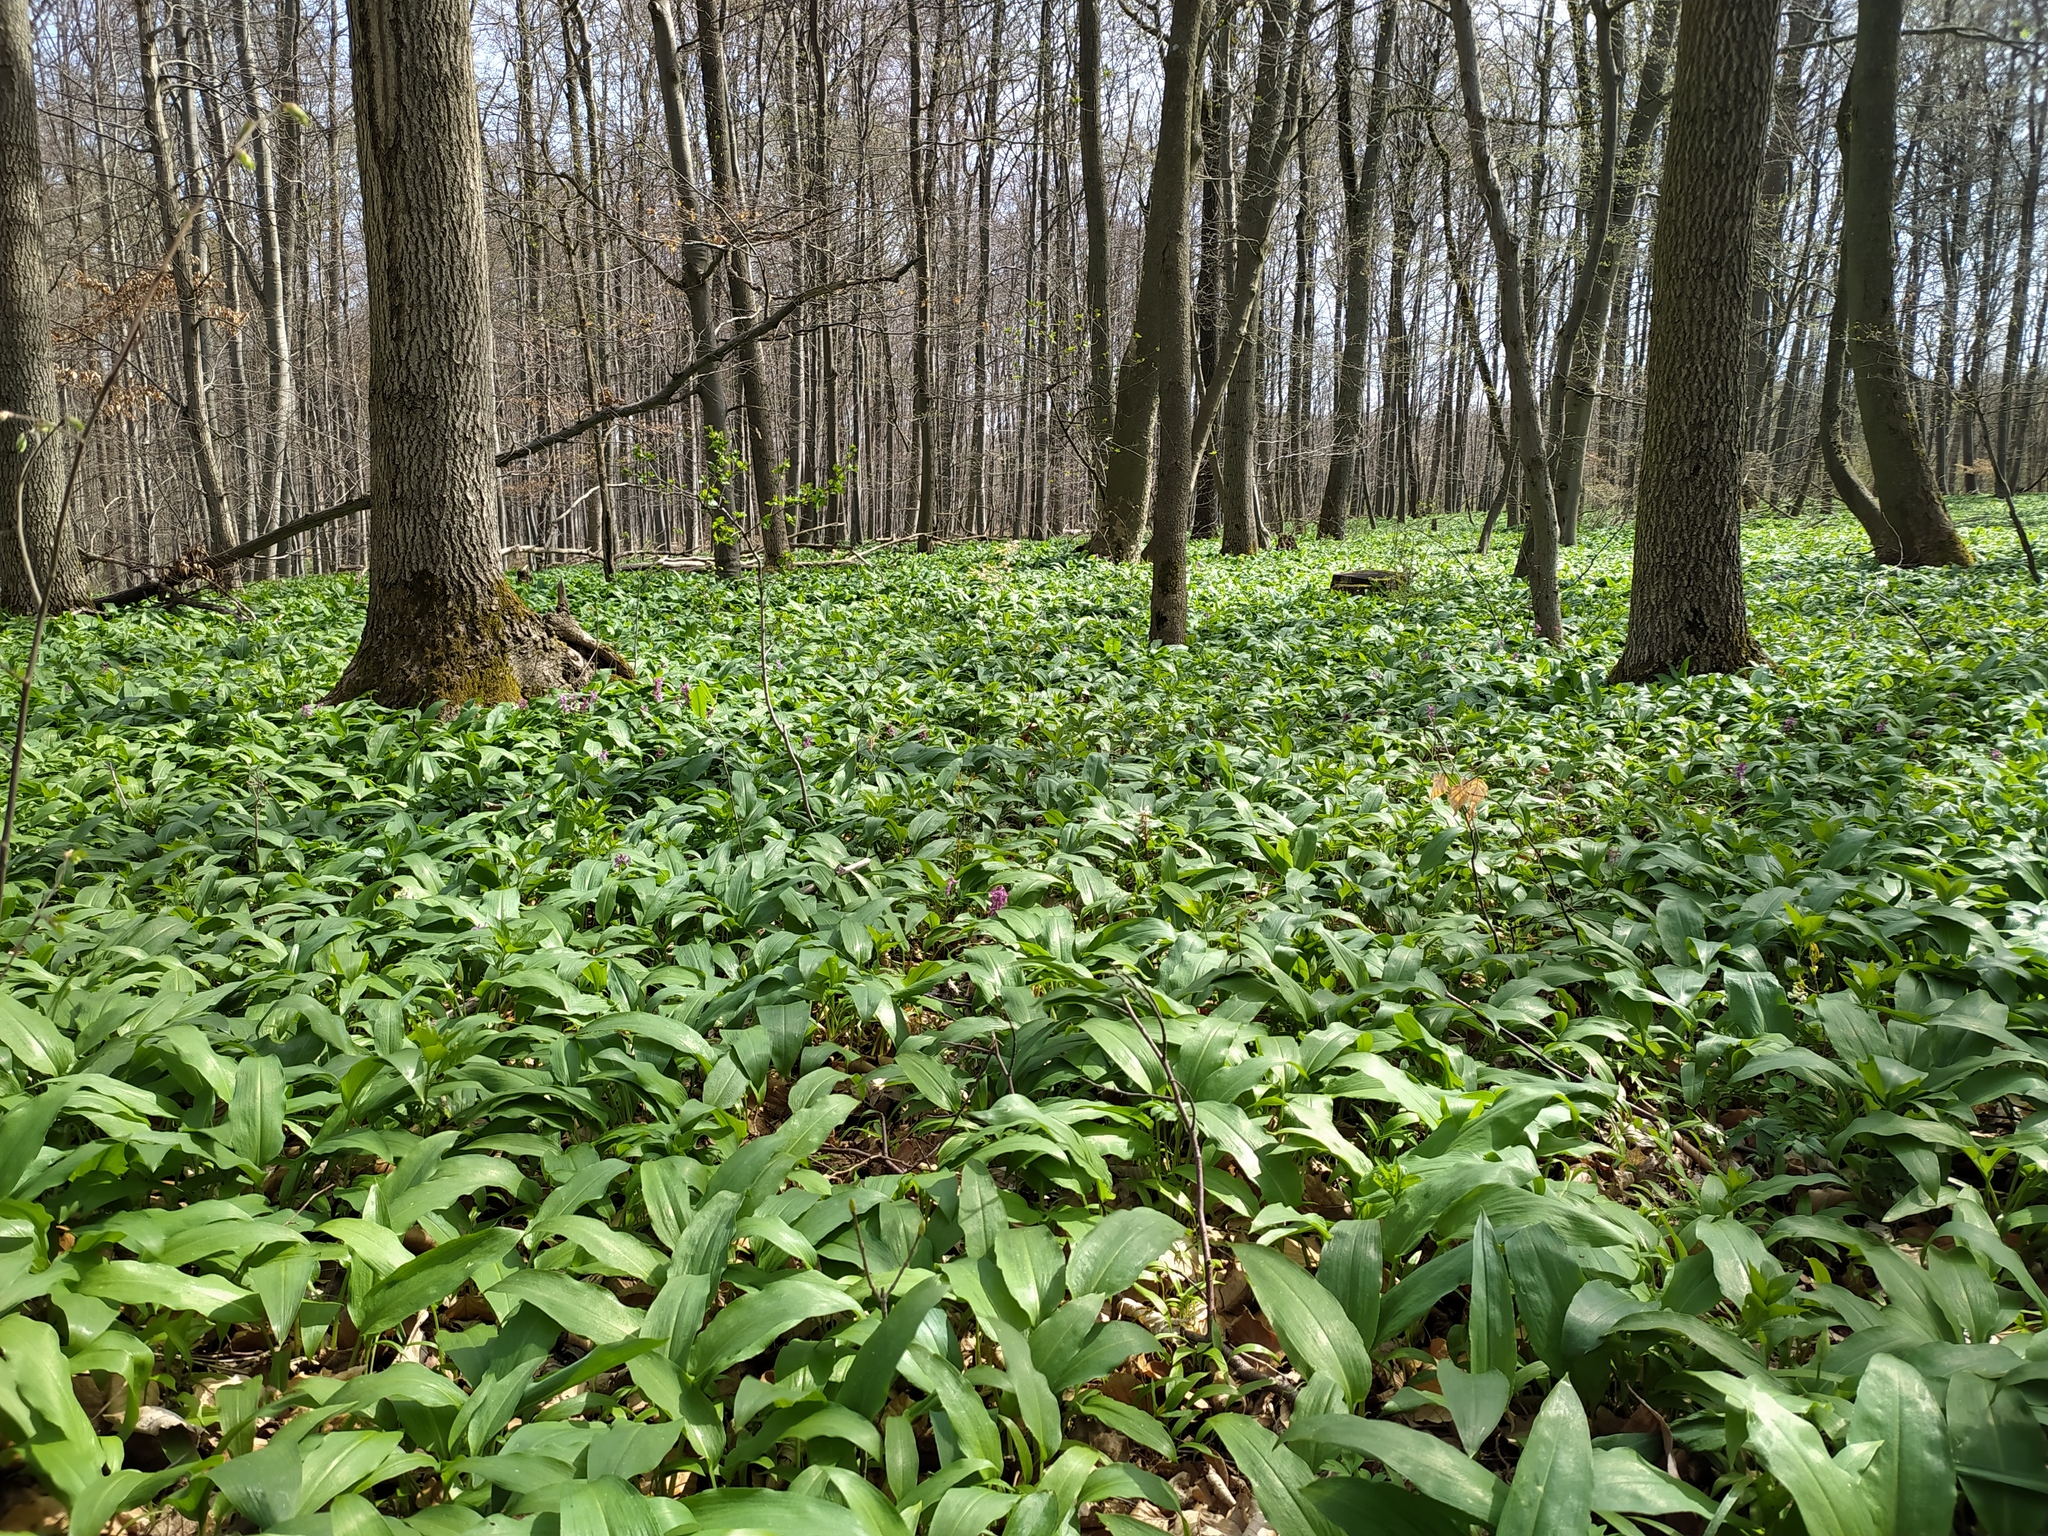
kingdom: Plantae
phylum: Tracheophyta
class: Liliopsida
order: Asparagales
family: Amaryllidaceae
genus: Allium
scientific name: Allium ursinum
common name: Ramsons
